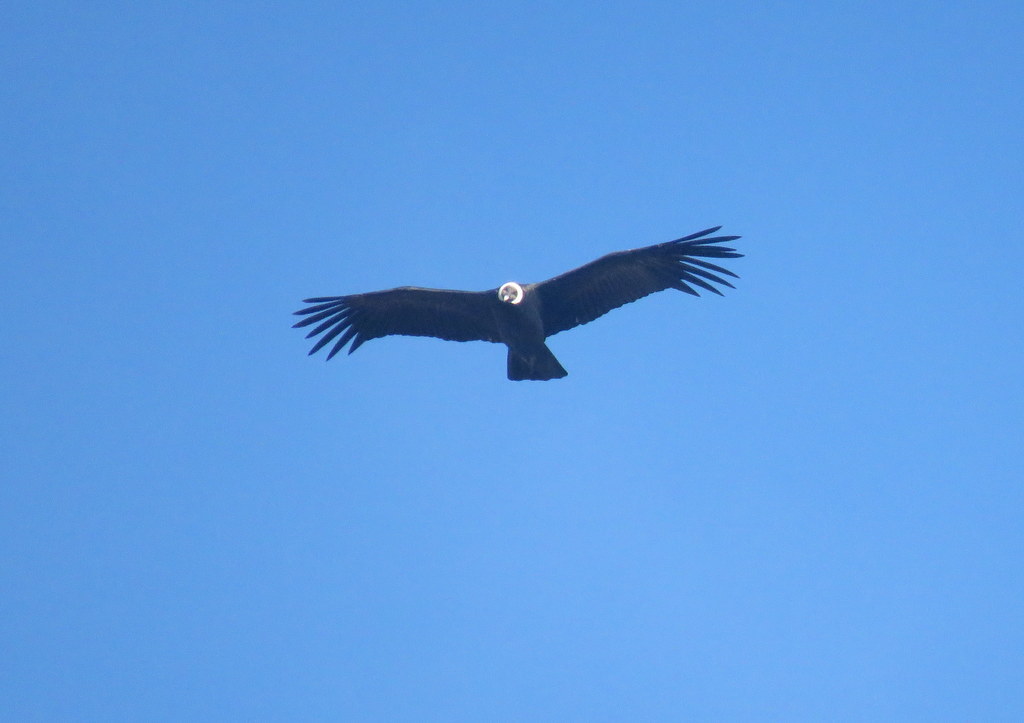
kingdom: Animalia
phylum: Chordata
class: Aves
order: Accipitriformes
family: Cathartidae
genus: Vultur
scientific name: Vultur gryphus
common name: Andean condor
